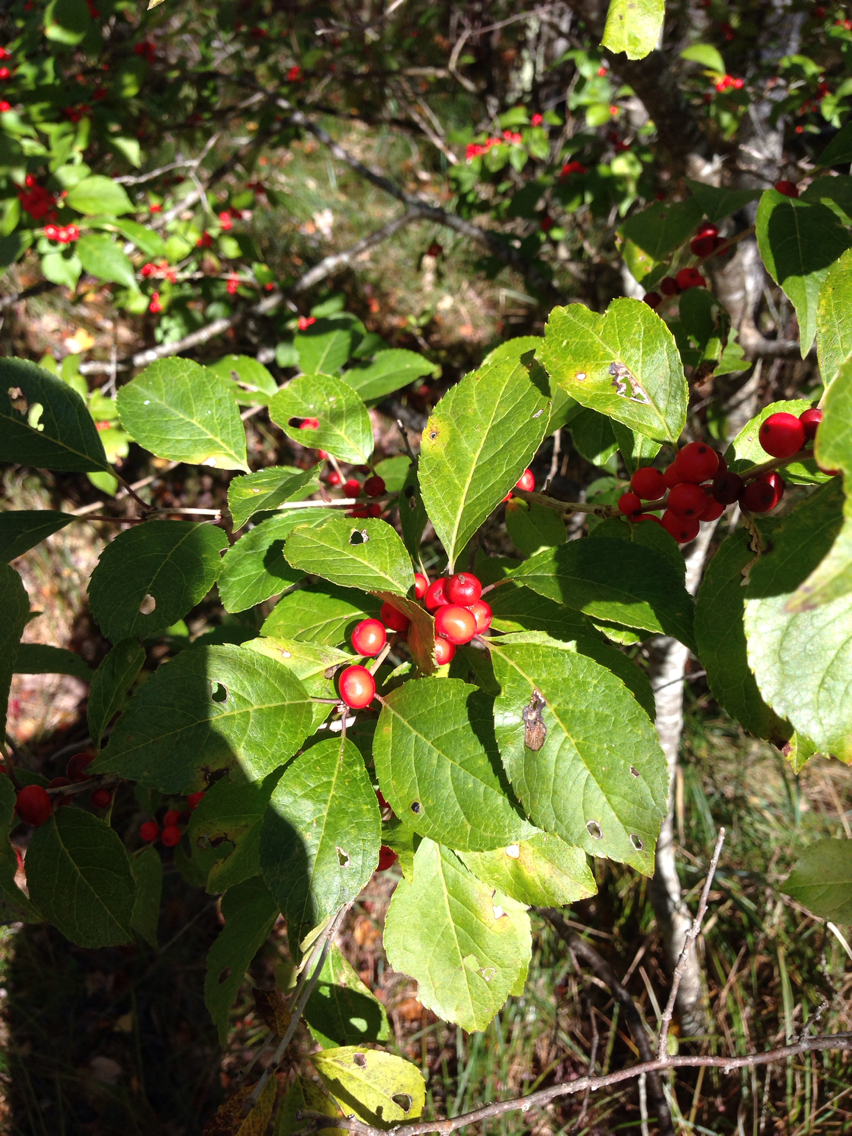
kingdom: Plantae
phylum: Tracheophyta
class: Magnoliopsida
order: Aquifoliales
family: Aquifoliaceae
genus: Ilex
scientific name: Ilex verticillata
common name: Virginia winterberry
